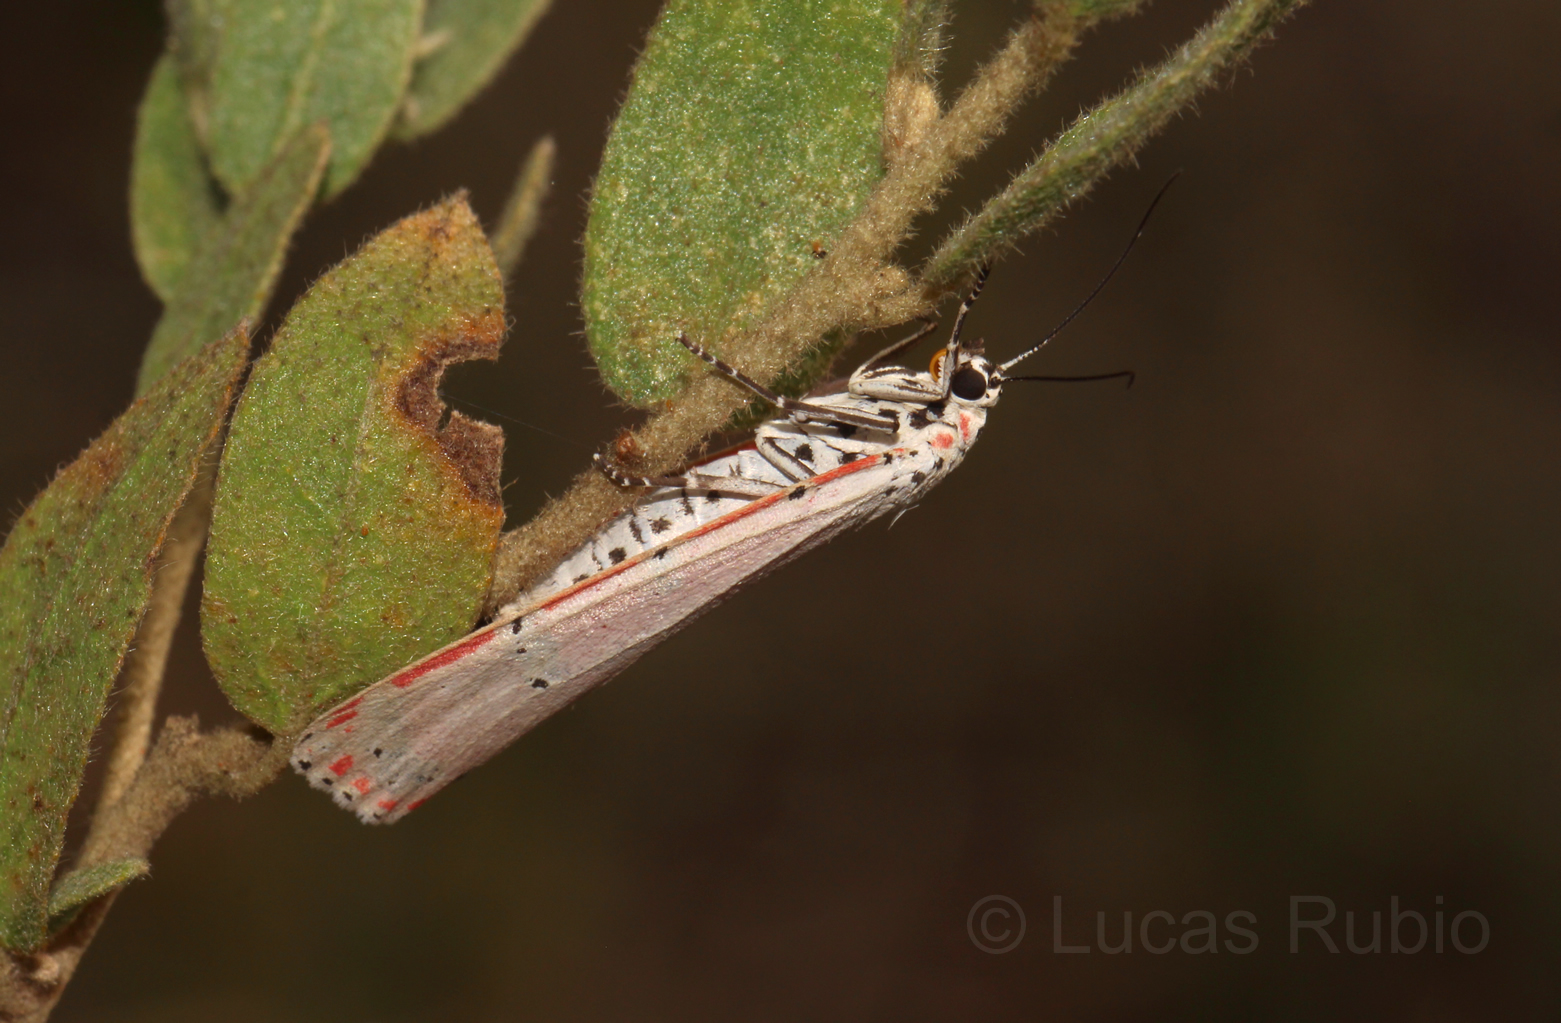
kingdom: Animalia
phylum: Arthropoda
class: Insecta
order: Lepidoptera
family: Erebidae
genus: Utetheisa
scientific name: Utetheisa ornatrix
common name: Beautiful utetheisa
